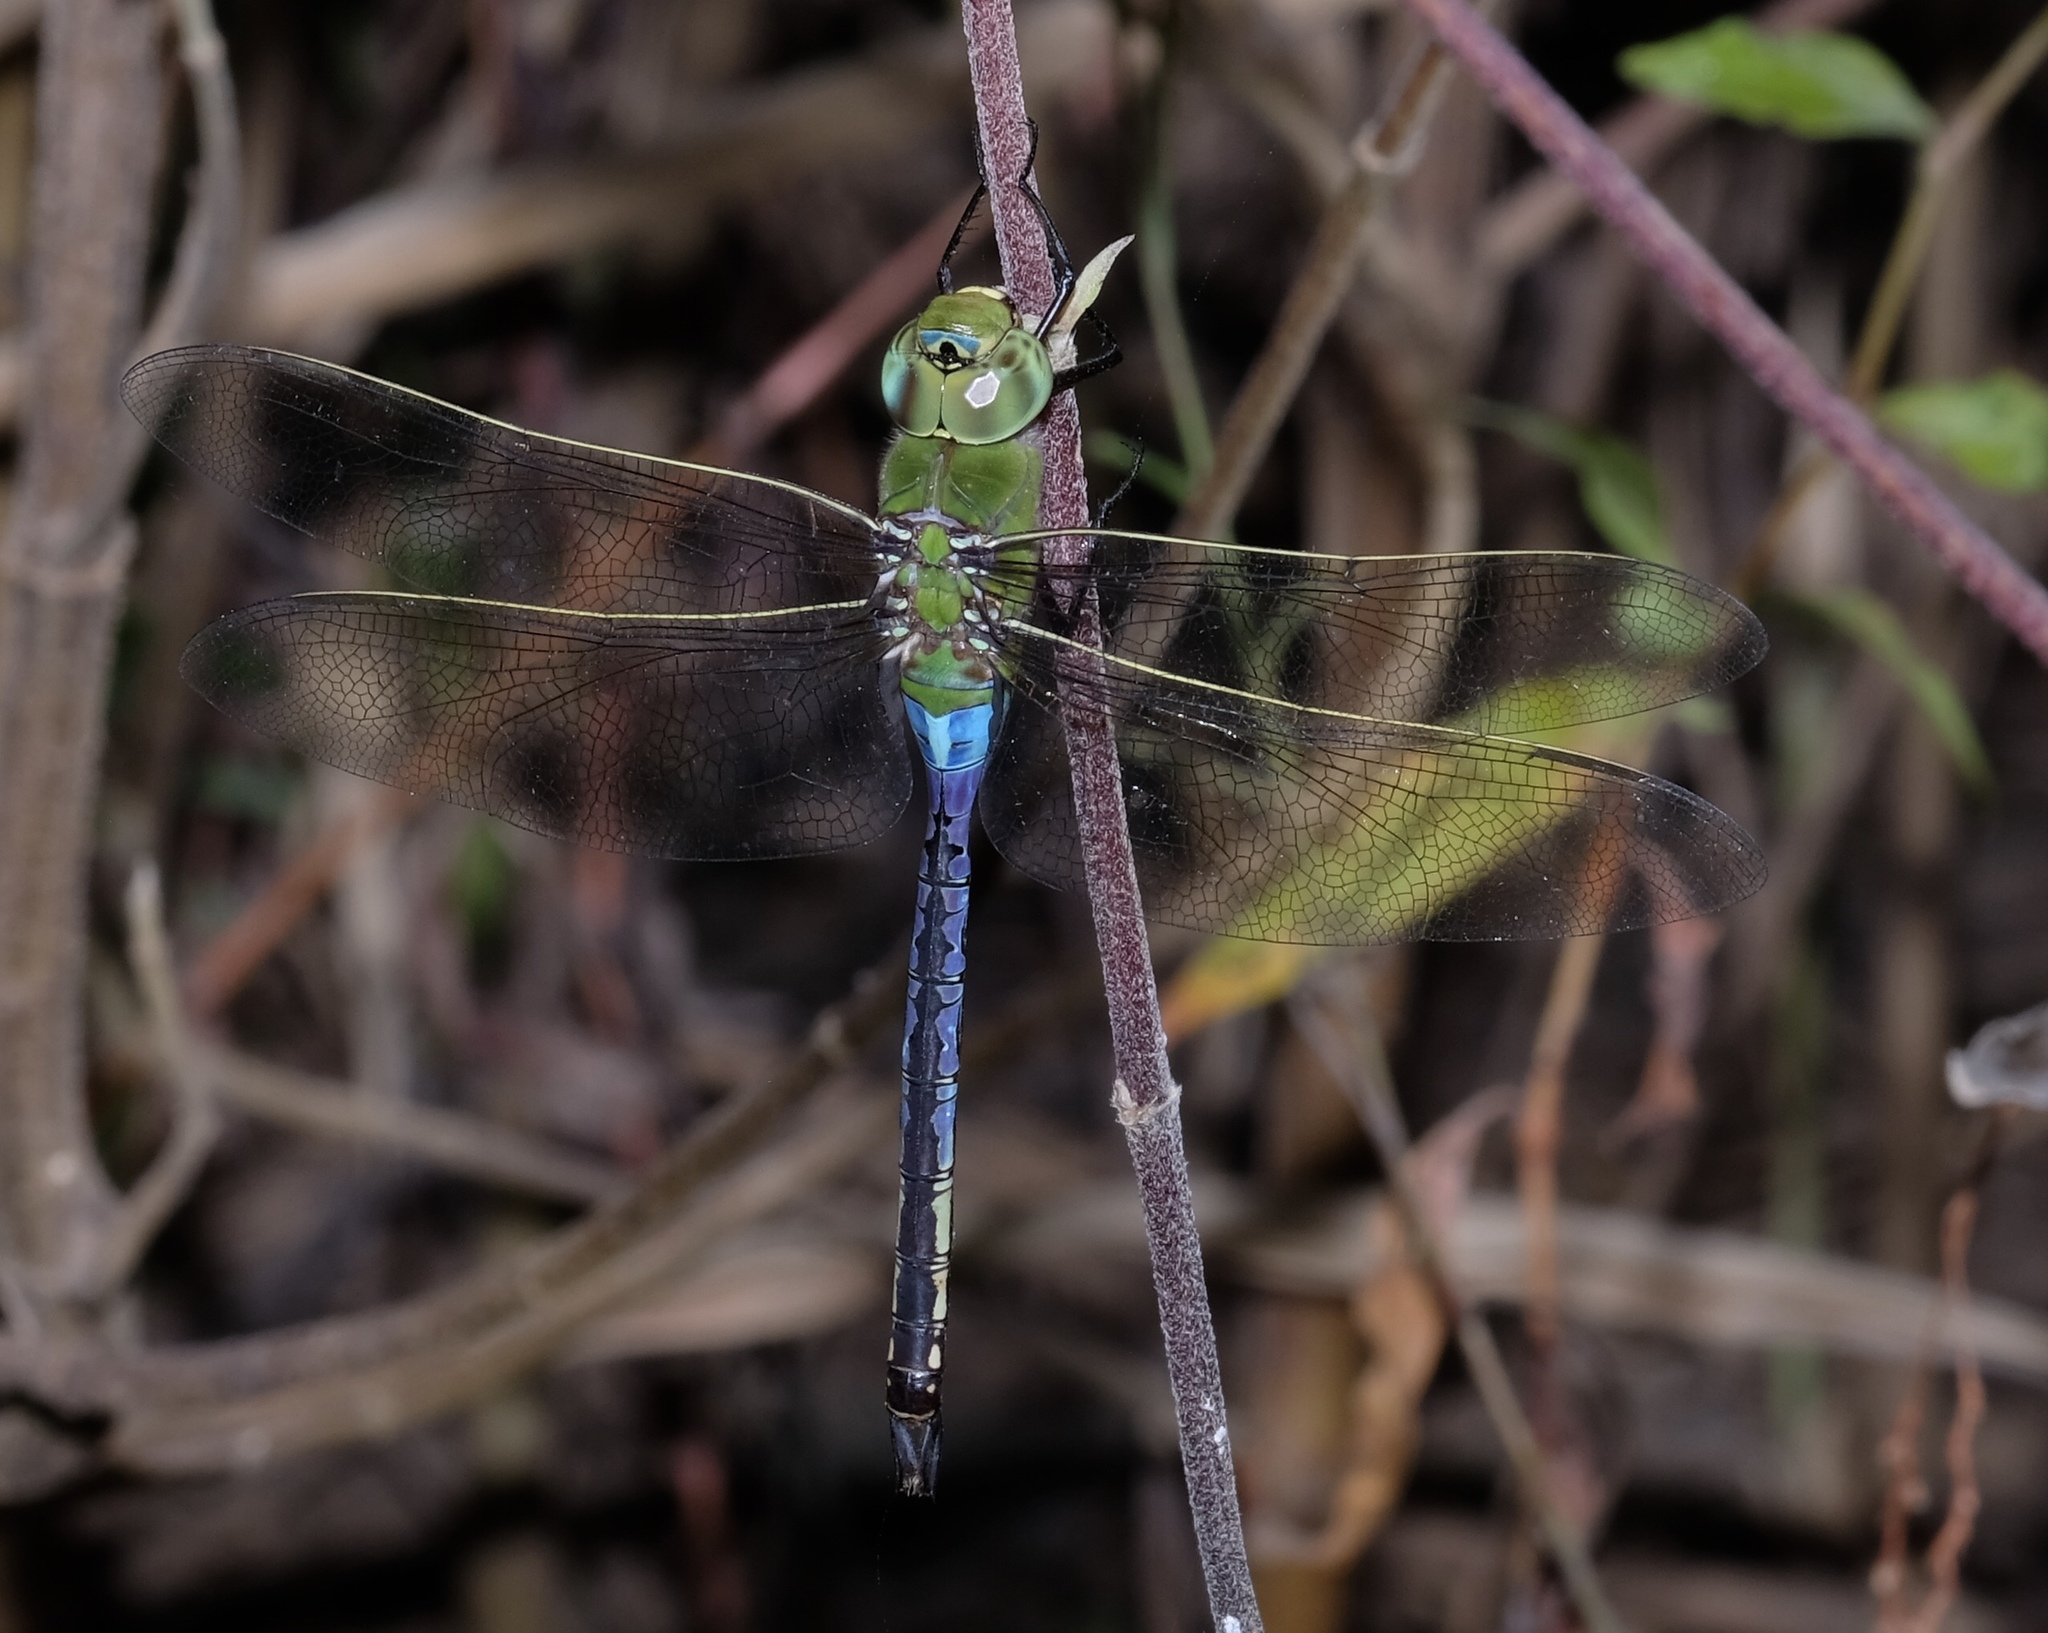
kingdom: Animalia
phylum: Arthropoda
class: Insecta
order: Odonata
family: Aeshnidae
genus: Anax
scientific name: Anax junius
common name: Common green darner
